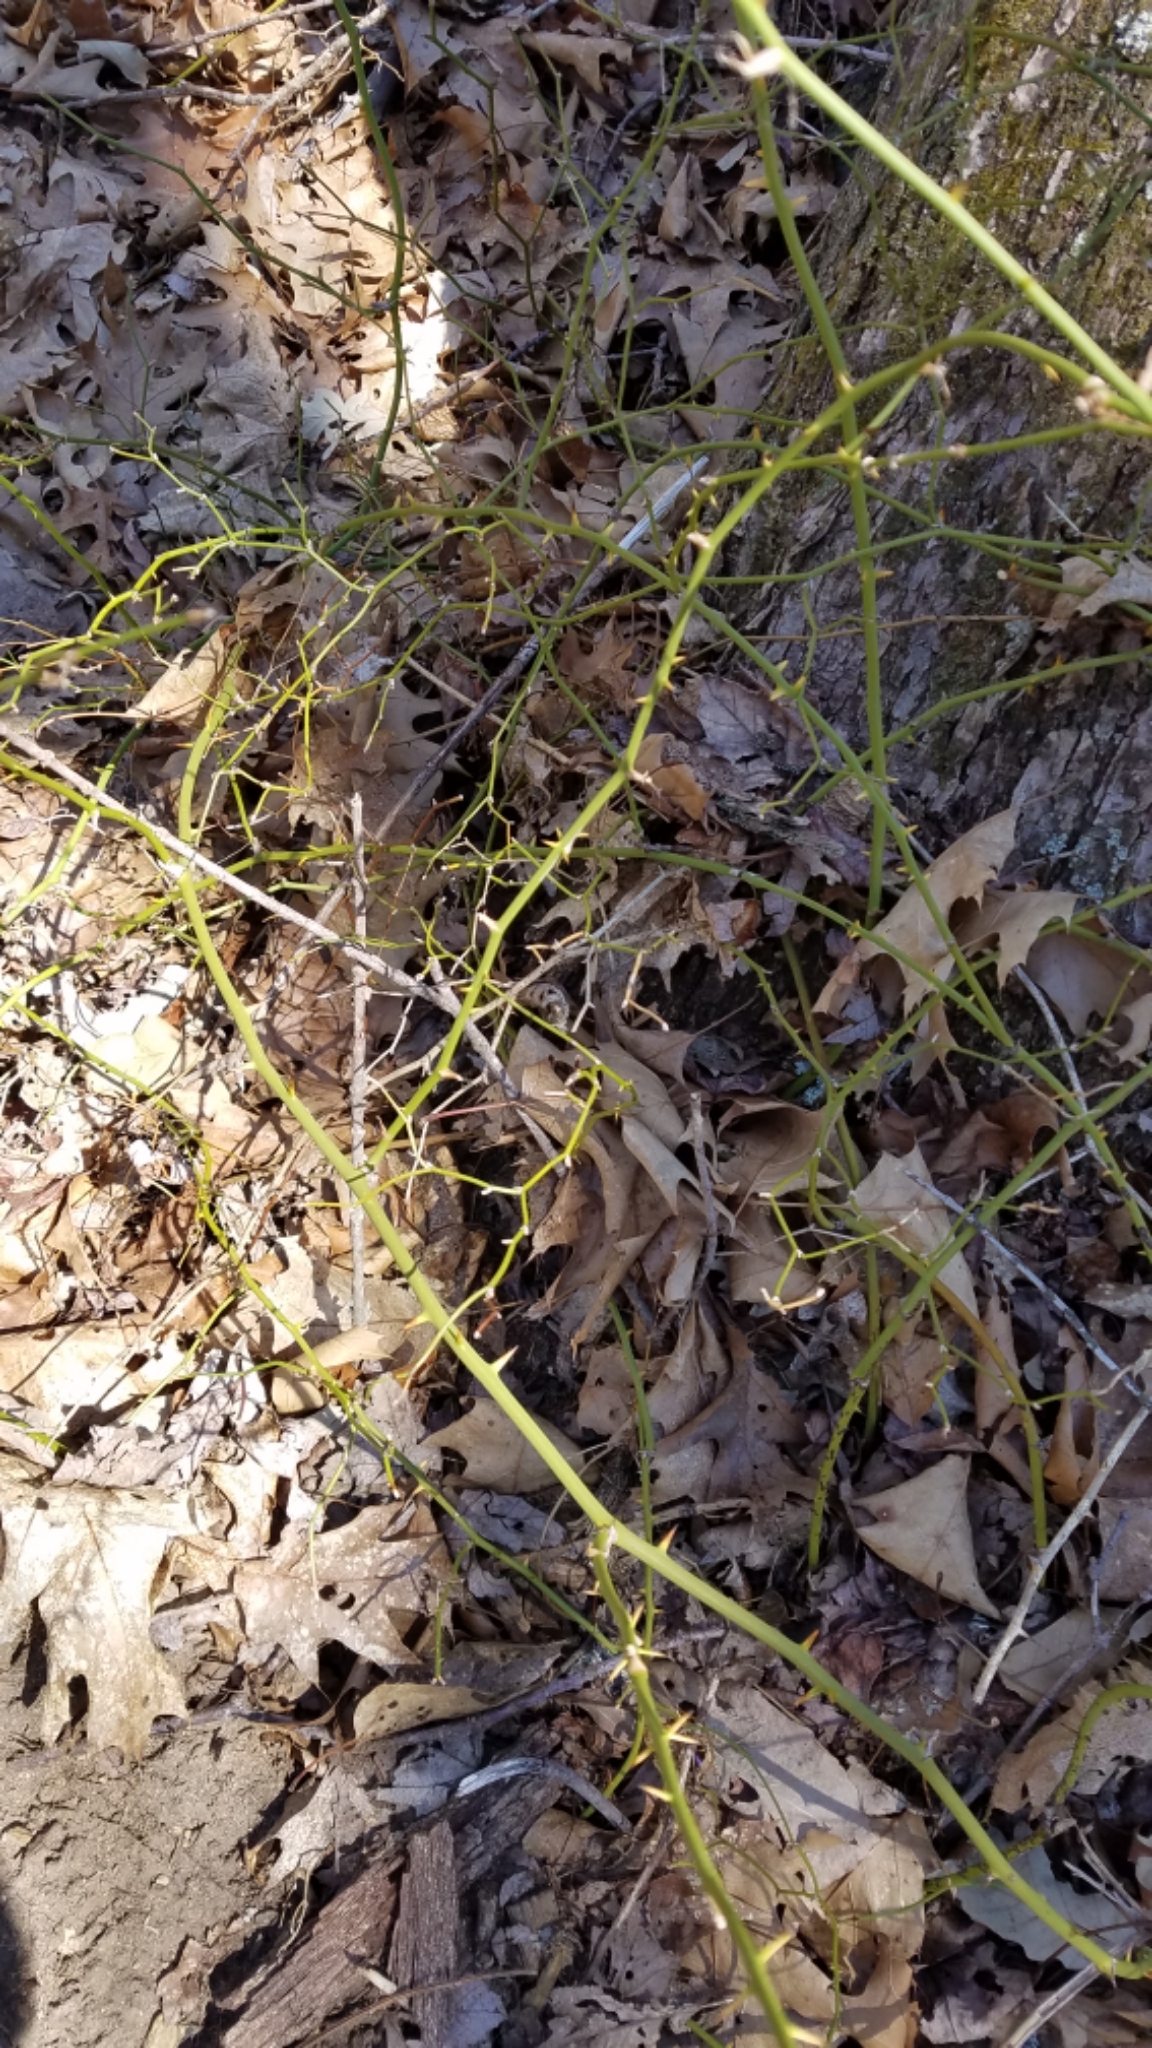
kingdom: Plantae
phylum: Tracheophyta
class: Liliopsida
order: Liliales
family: Smilacaceae
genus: Smilax
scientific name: Smilax rotundifolia
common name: Bullbriar
